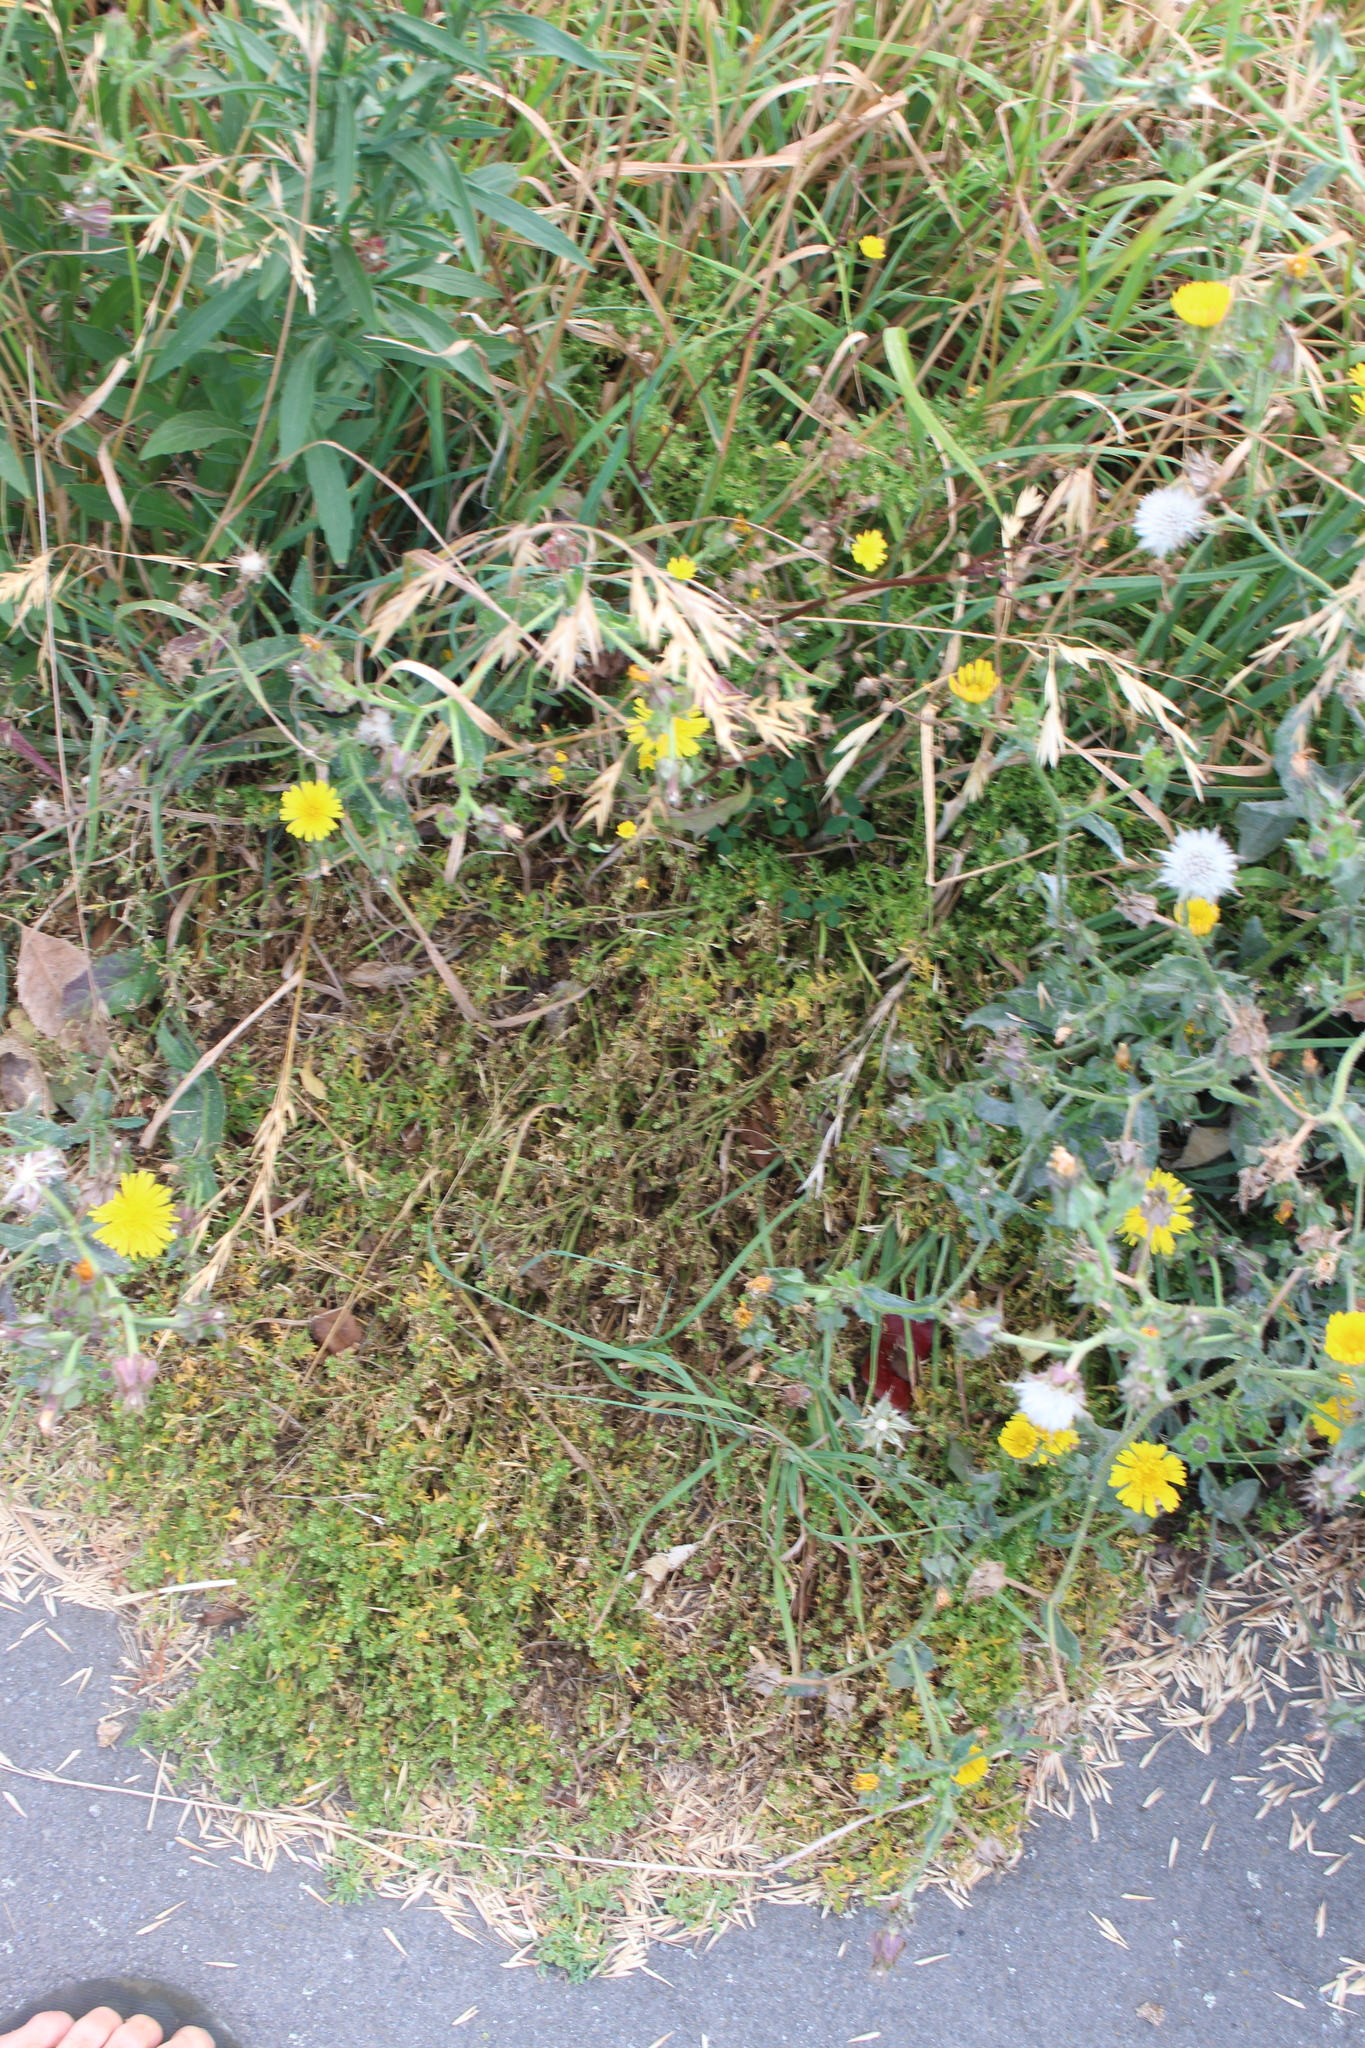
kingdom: Plantae
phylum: Tracheophyta
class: Magnoliopsida
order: Brassicales
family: Brassicaceae
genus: Lepidium
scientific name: Lepidium didymum
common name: Lesser swinecress
